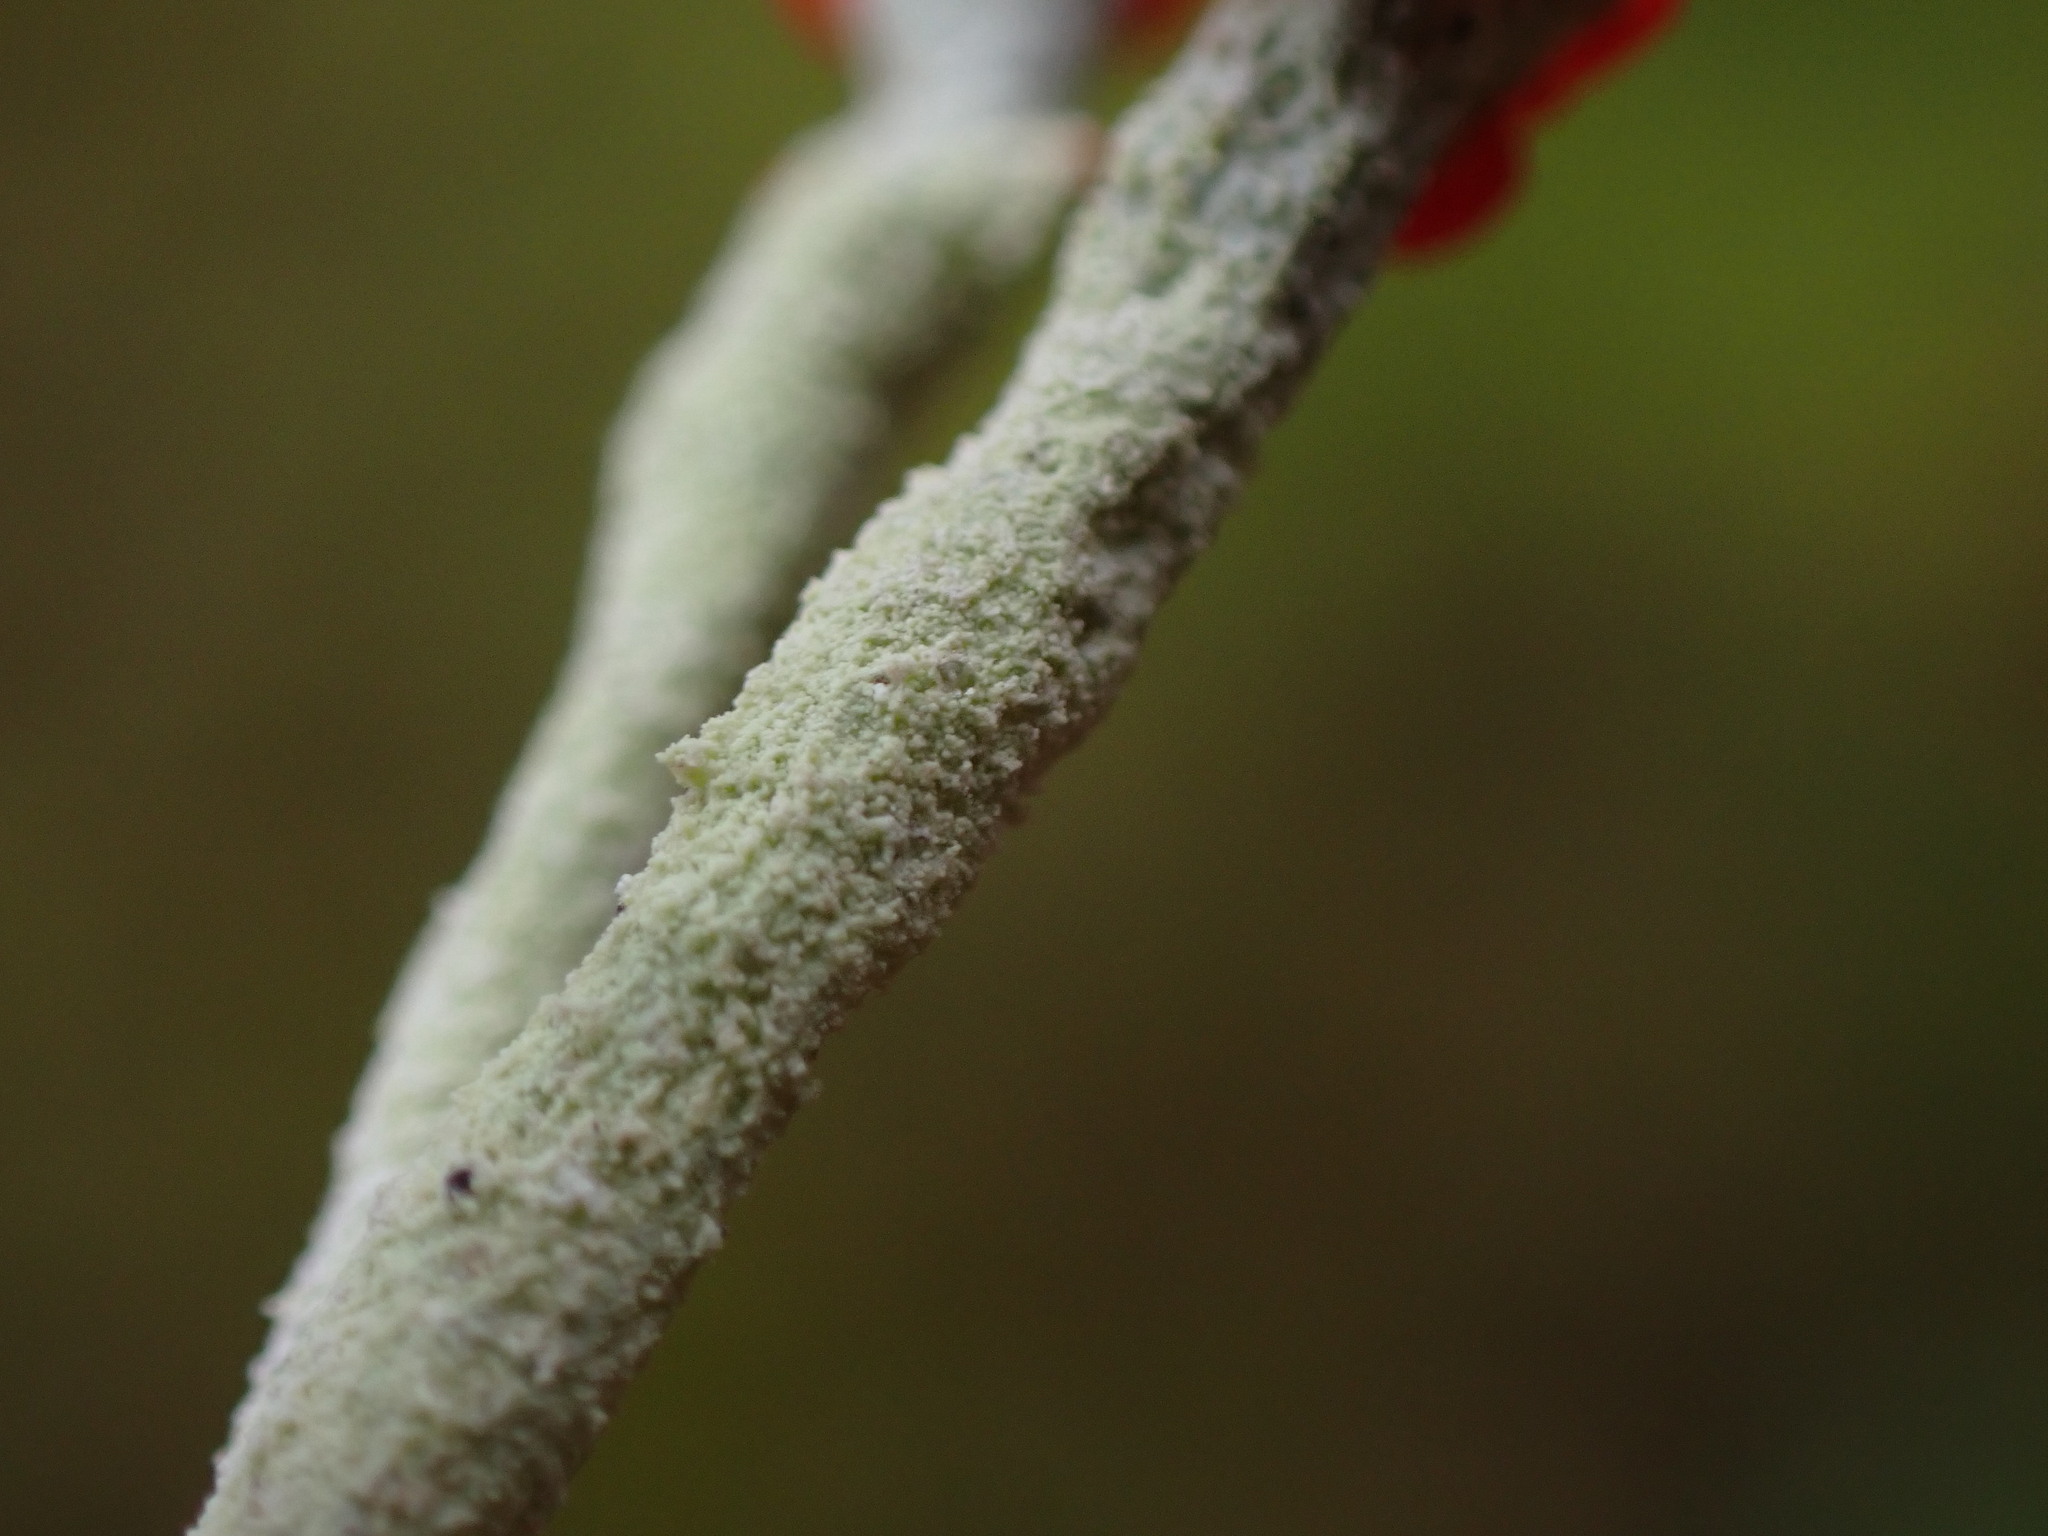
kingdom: Fungi
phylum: Ascomycota
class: Lecanoromycetes
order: Lecanorales
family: Cladoniaceae
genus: Cladonia
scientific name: Cladonia transcendens
